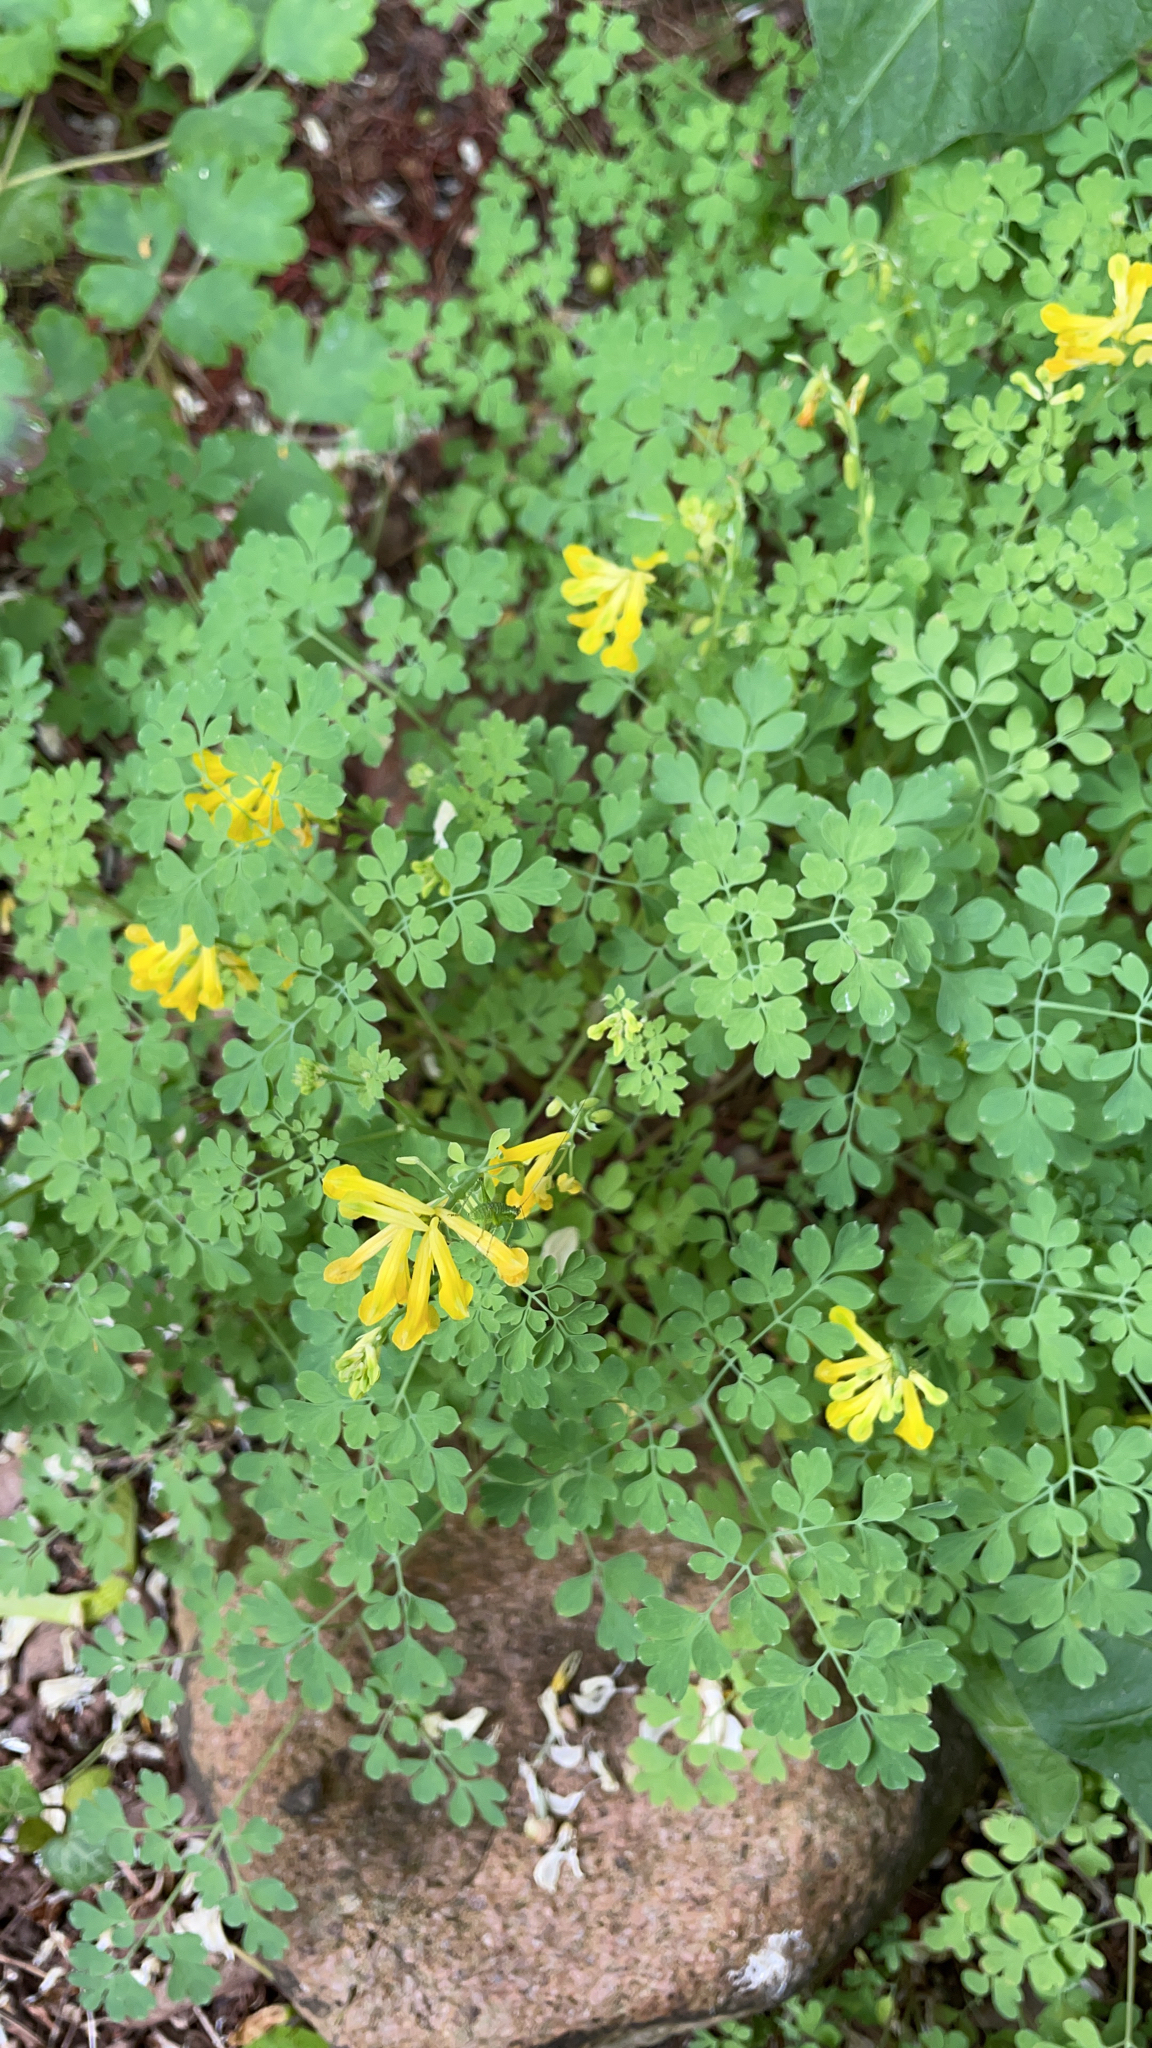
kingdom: Plantae
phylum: Tracheophyta
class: Magnoliopsida
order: Ranunculales
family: Papaveraceae
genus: Pseudofumaria
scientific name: Pseudofumaria lutea
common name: Yellow corydalis
